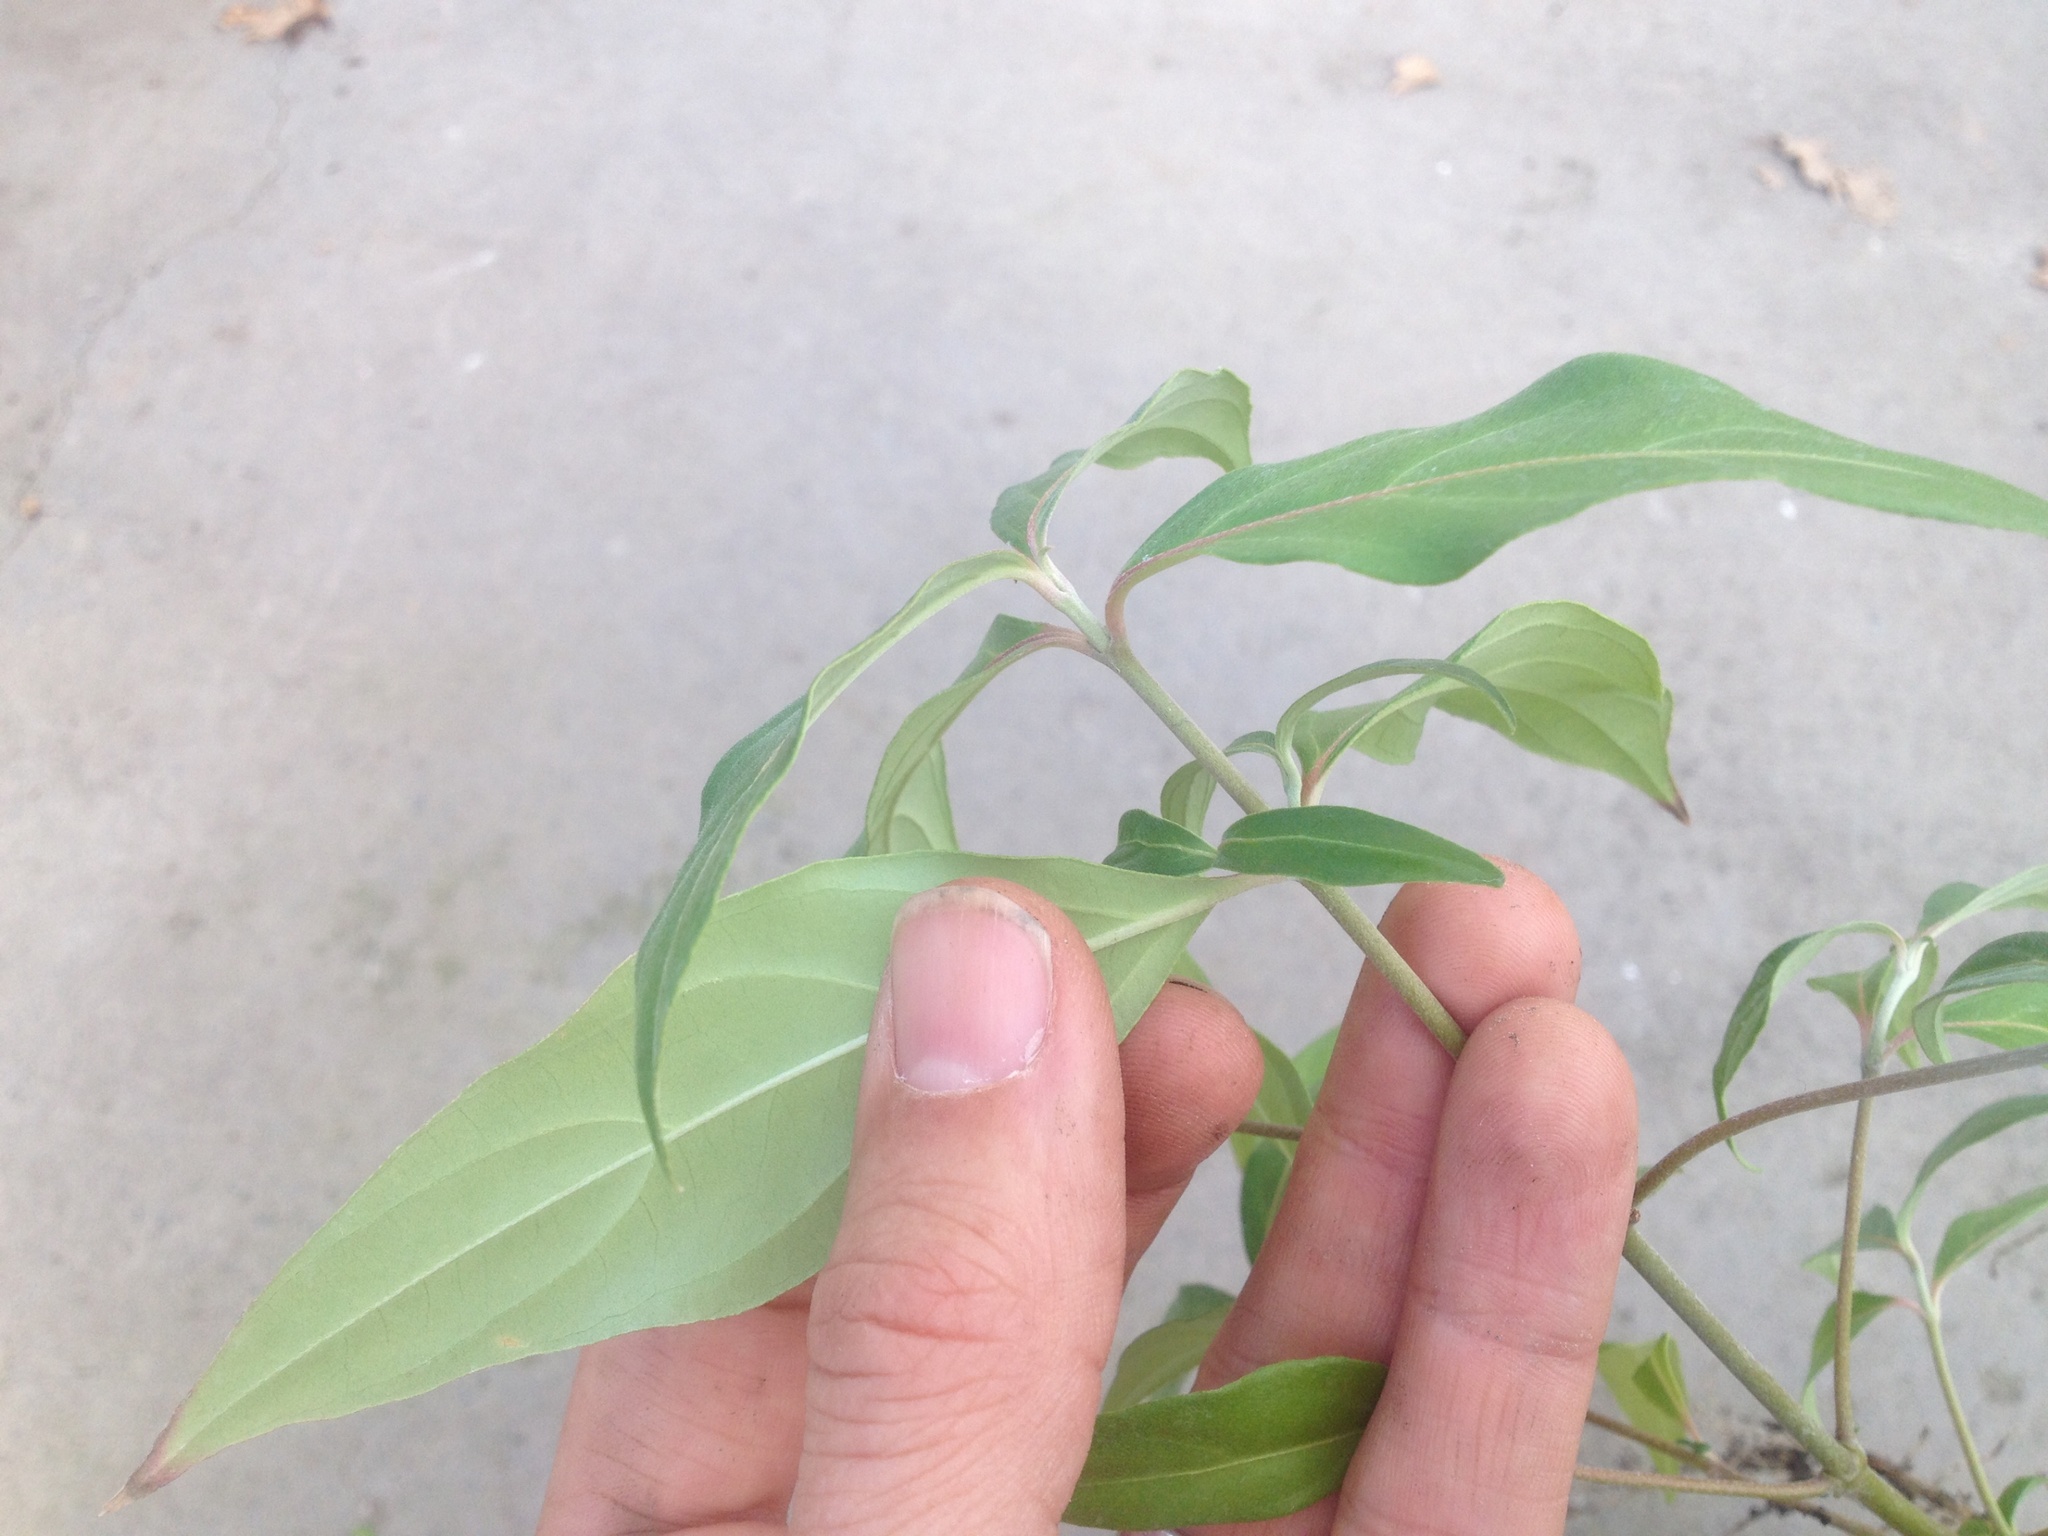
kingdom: Plantae
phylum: Tracheophyta
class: Magnoliopsida
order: Cornales
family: Cornaceae
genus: Cornus
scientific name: Cornus capitata
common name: Bentham's cornel
